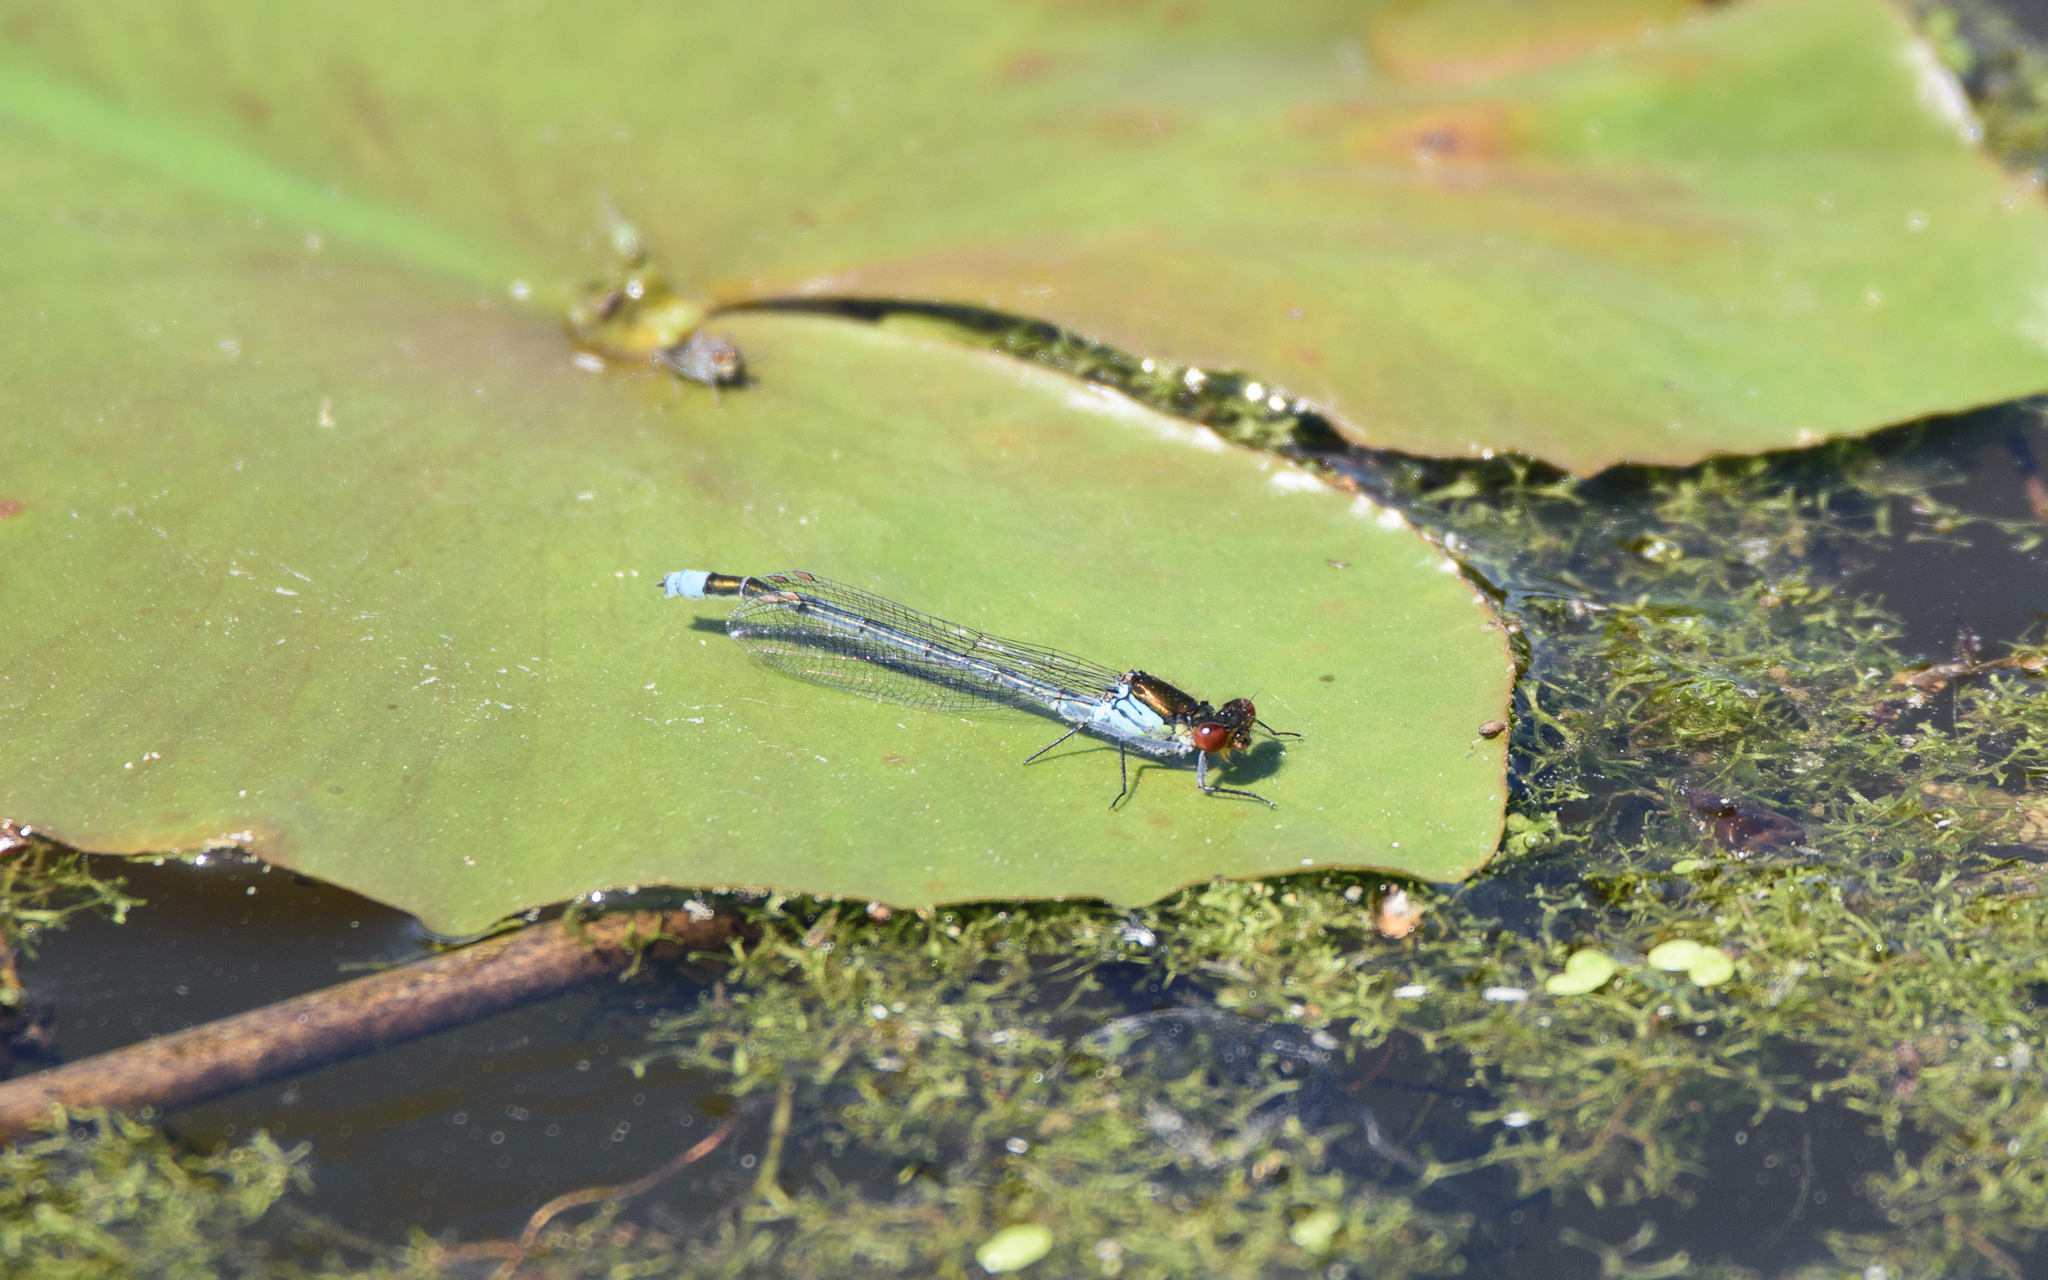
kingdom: Animalia
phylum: Arthropoda
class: Insecta
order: Odonata
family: Coenagrionidae
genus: Erythromma
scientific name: Erythromma najas
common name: Red-eyed damselfly
